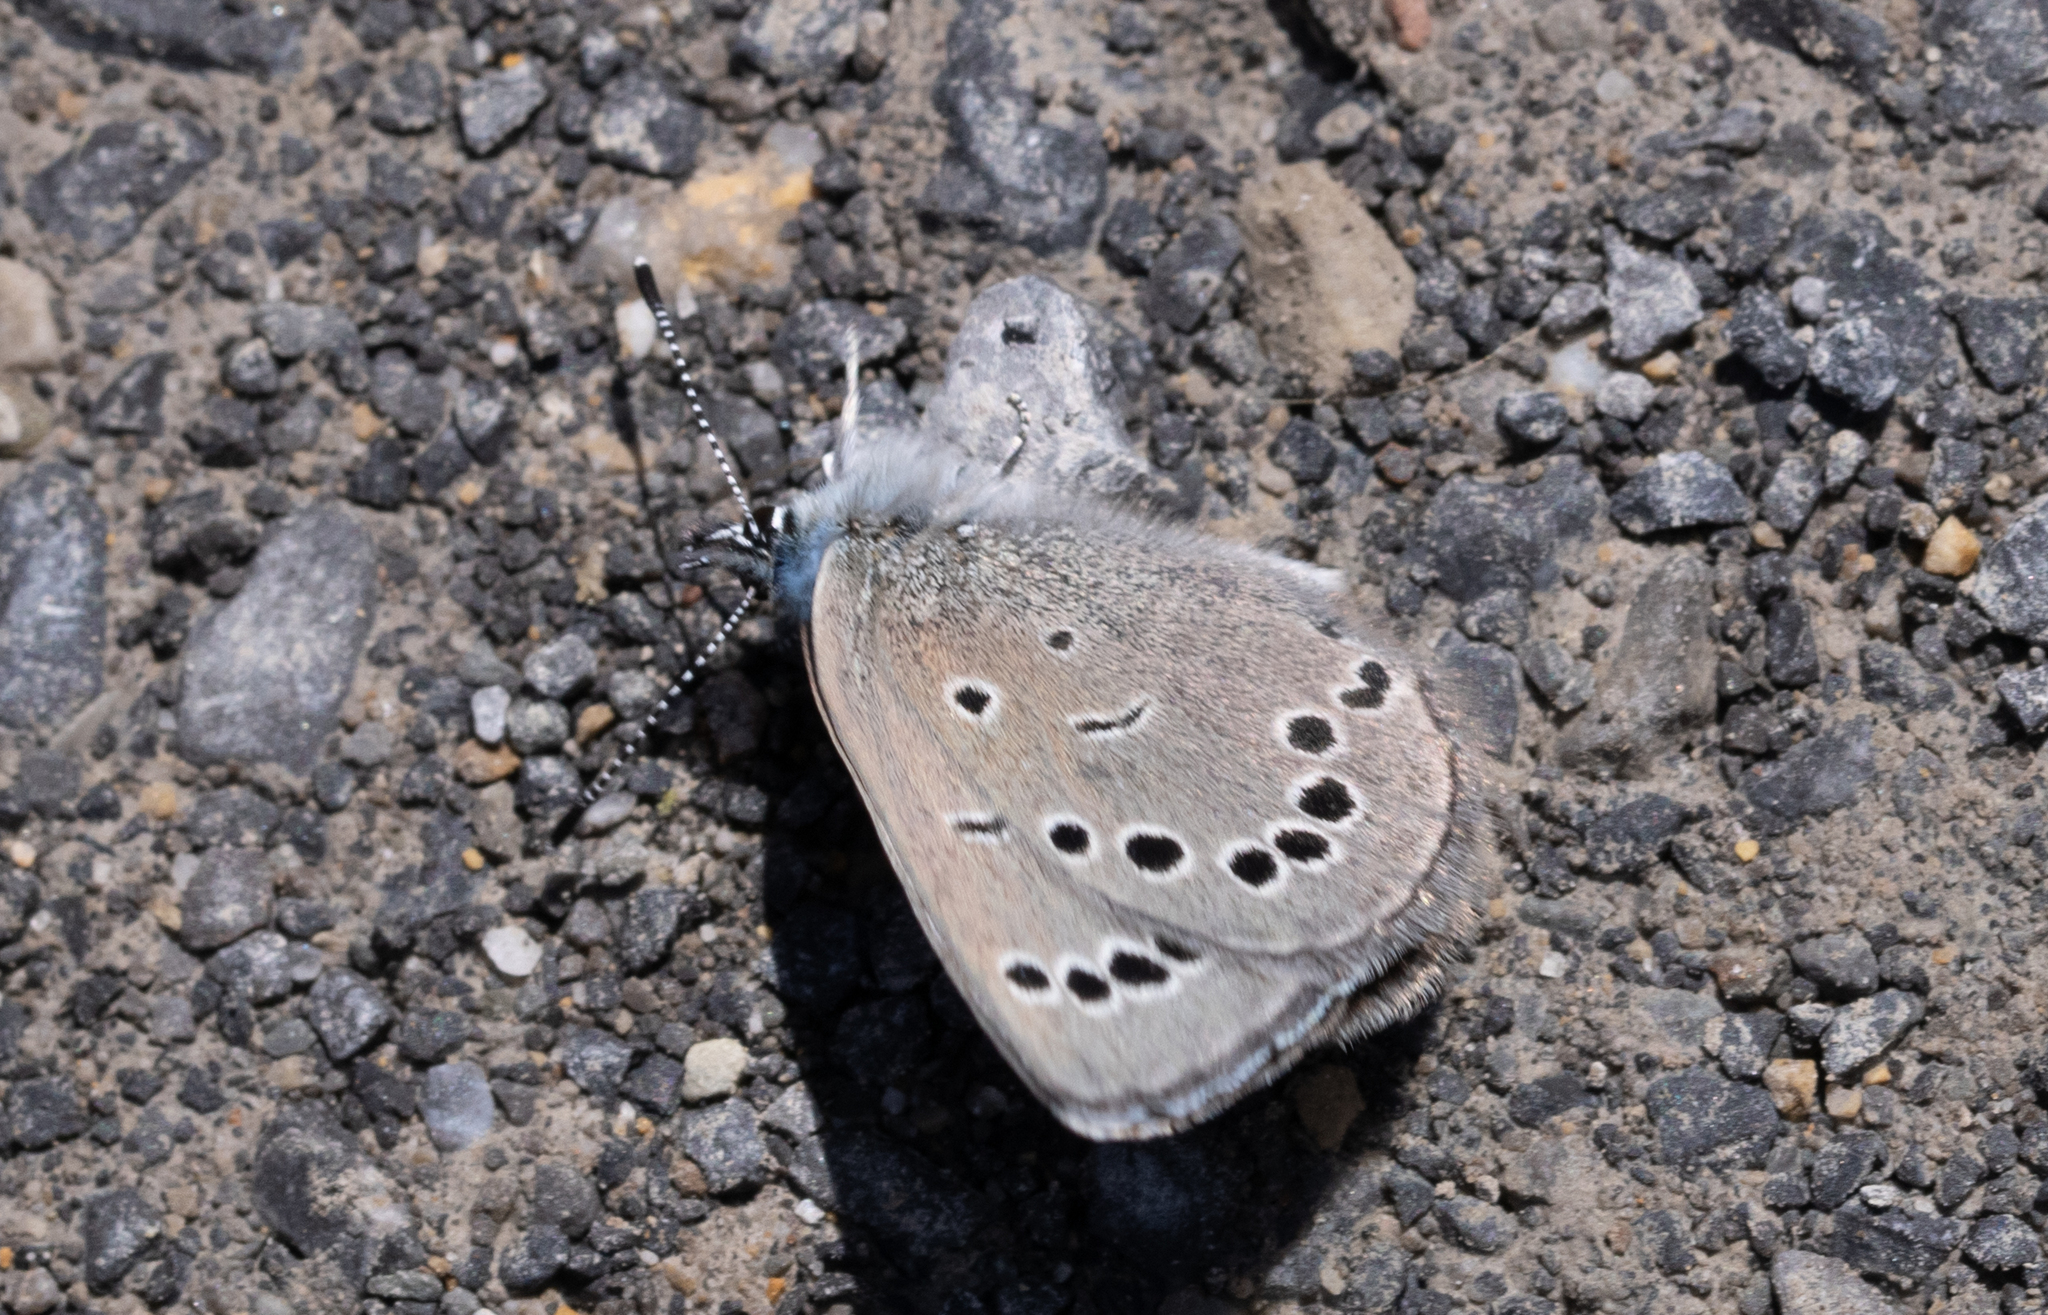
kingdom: Animalia
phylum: Arthropoda
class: Insecta
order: Lepidoptera
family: Lycaenidae
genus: Glaucopsyche
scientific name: Glaucopsyche lygdamus
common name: Silvery blue
